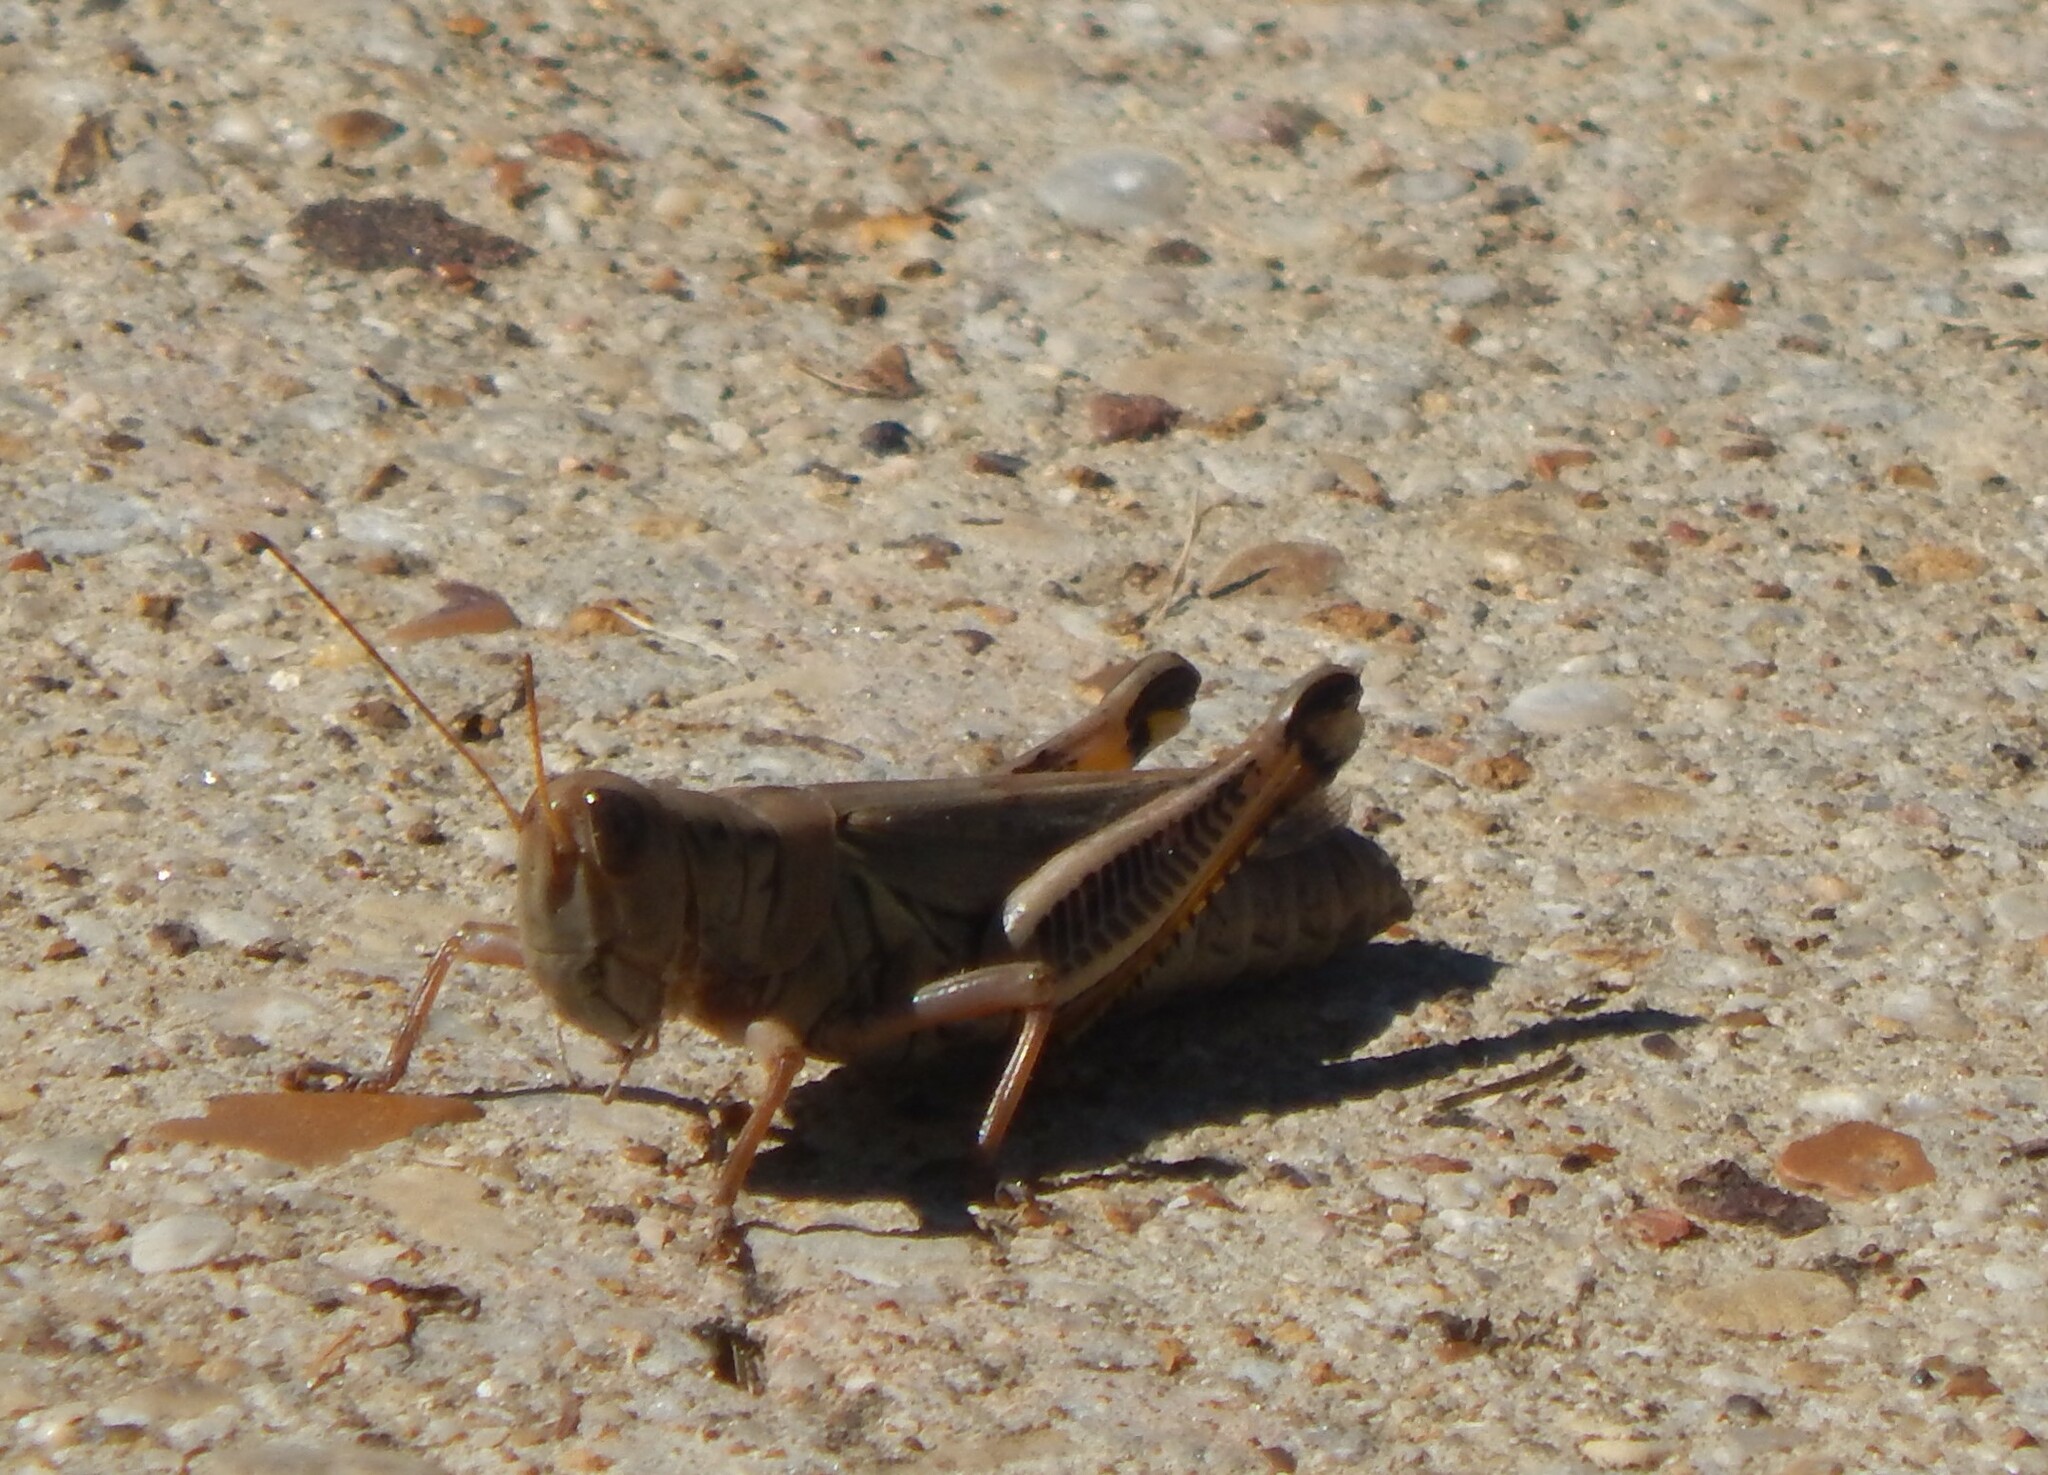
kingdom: Animalia
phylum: Arthropoda
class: Insecta
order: Orthoptera
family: Acrididae
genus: Melanoplus
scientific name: Melanoplus differentialis
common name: Differential grasshopper
